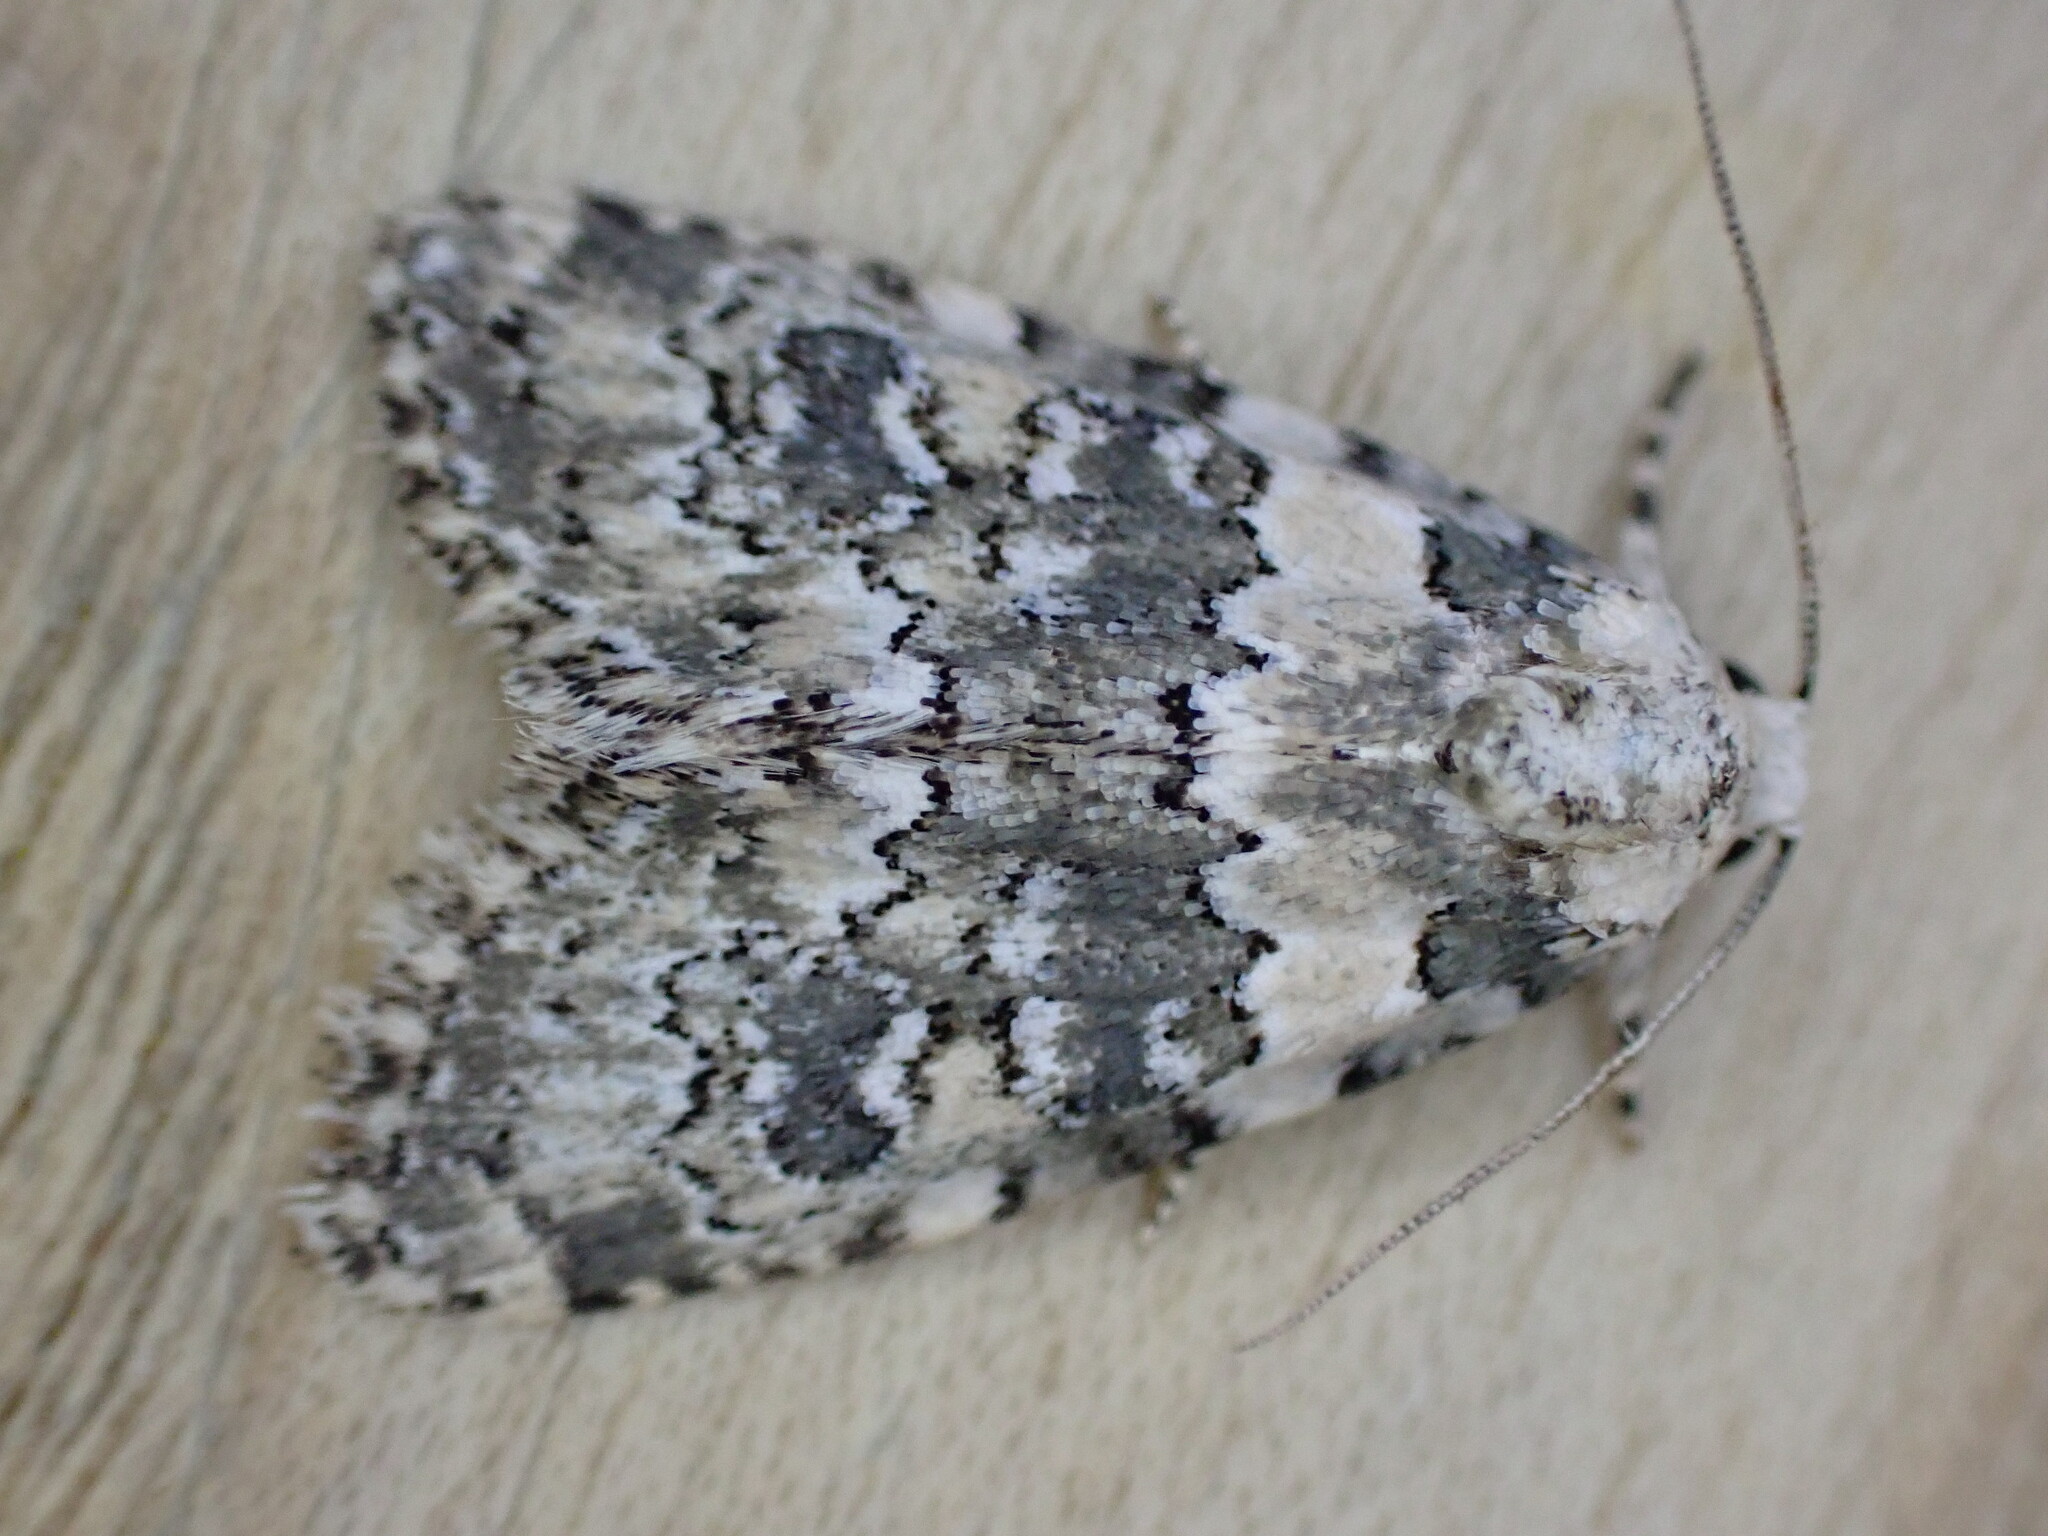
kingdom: Animalia
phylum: Arthropoda
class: Insecta
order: Lepidoptera
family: Noctuidae
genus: Bryophila
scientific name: Bryophila domestica
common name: Marbled beauty
